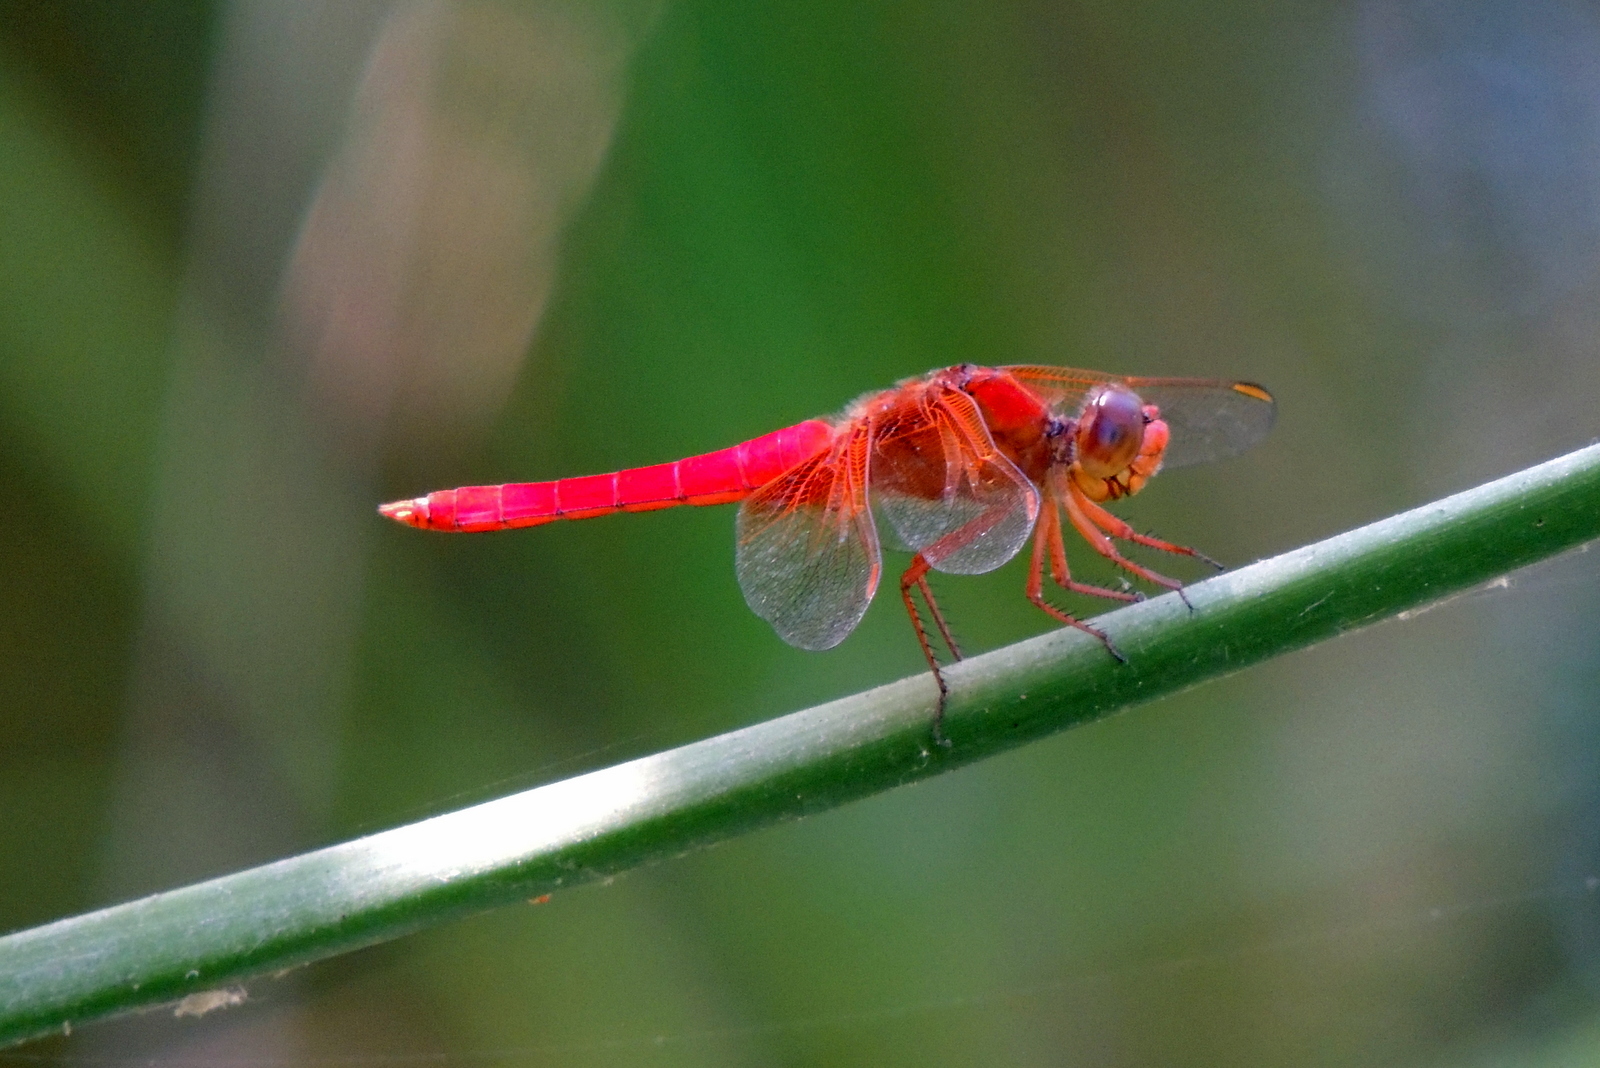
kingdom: Animalia
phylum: Arthropoda
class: Insecta
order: Odonata
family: Libellulidae
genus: Libellula
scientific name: Libellula croceipennis
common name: Neon skimmer
